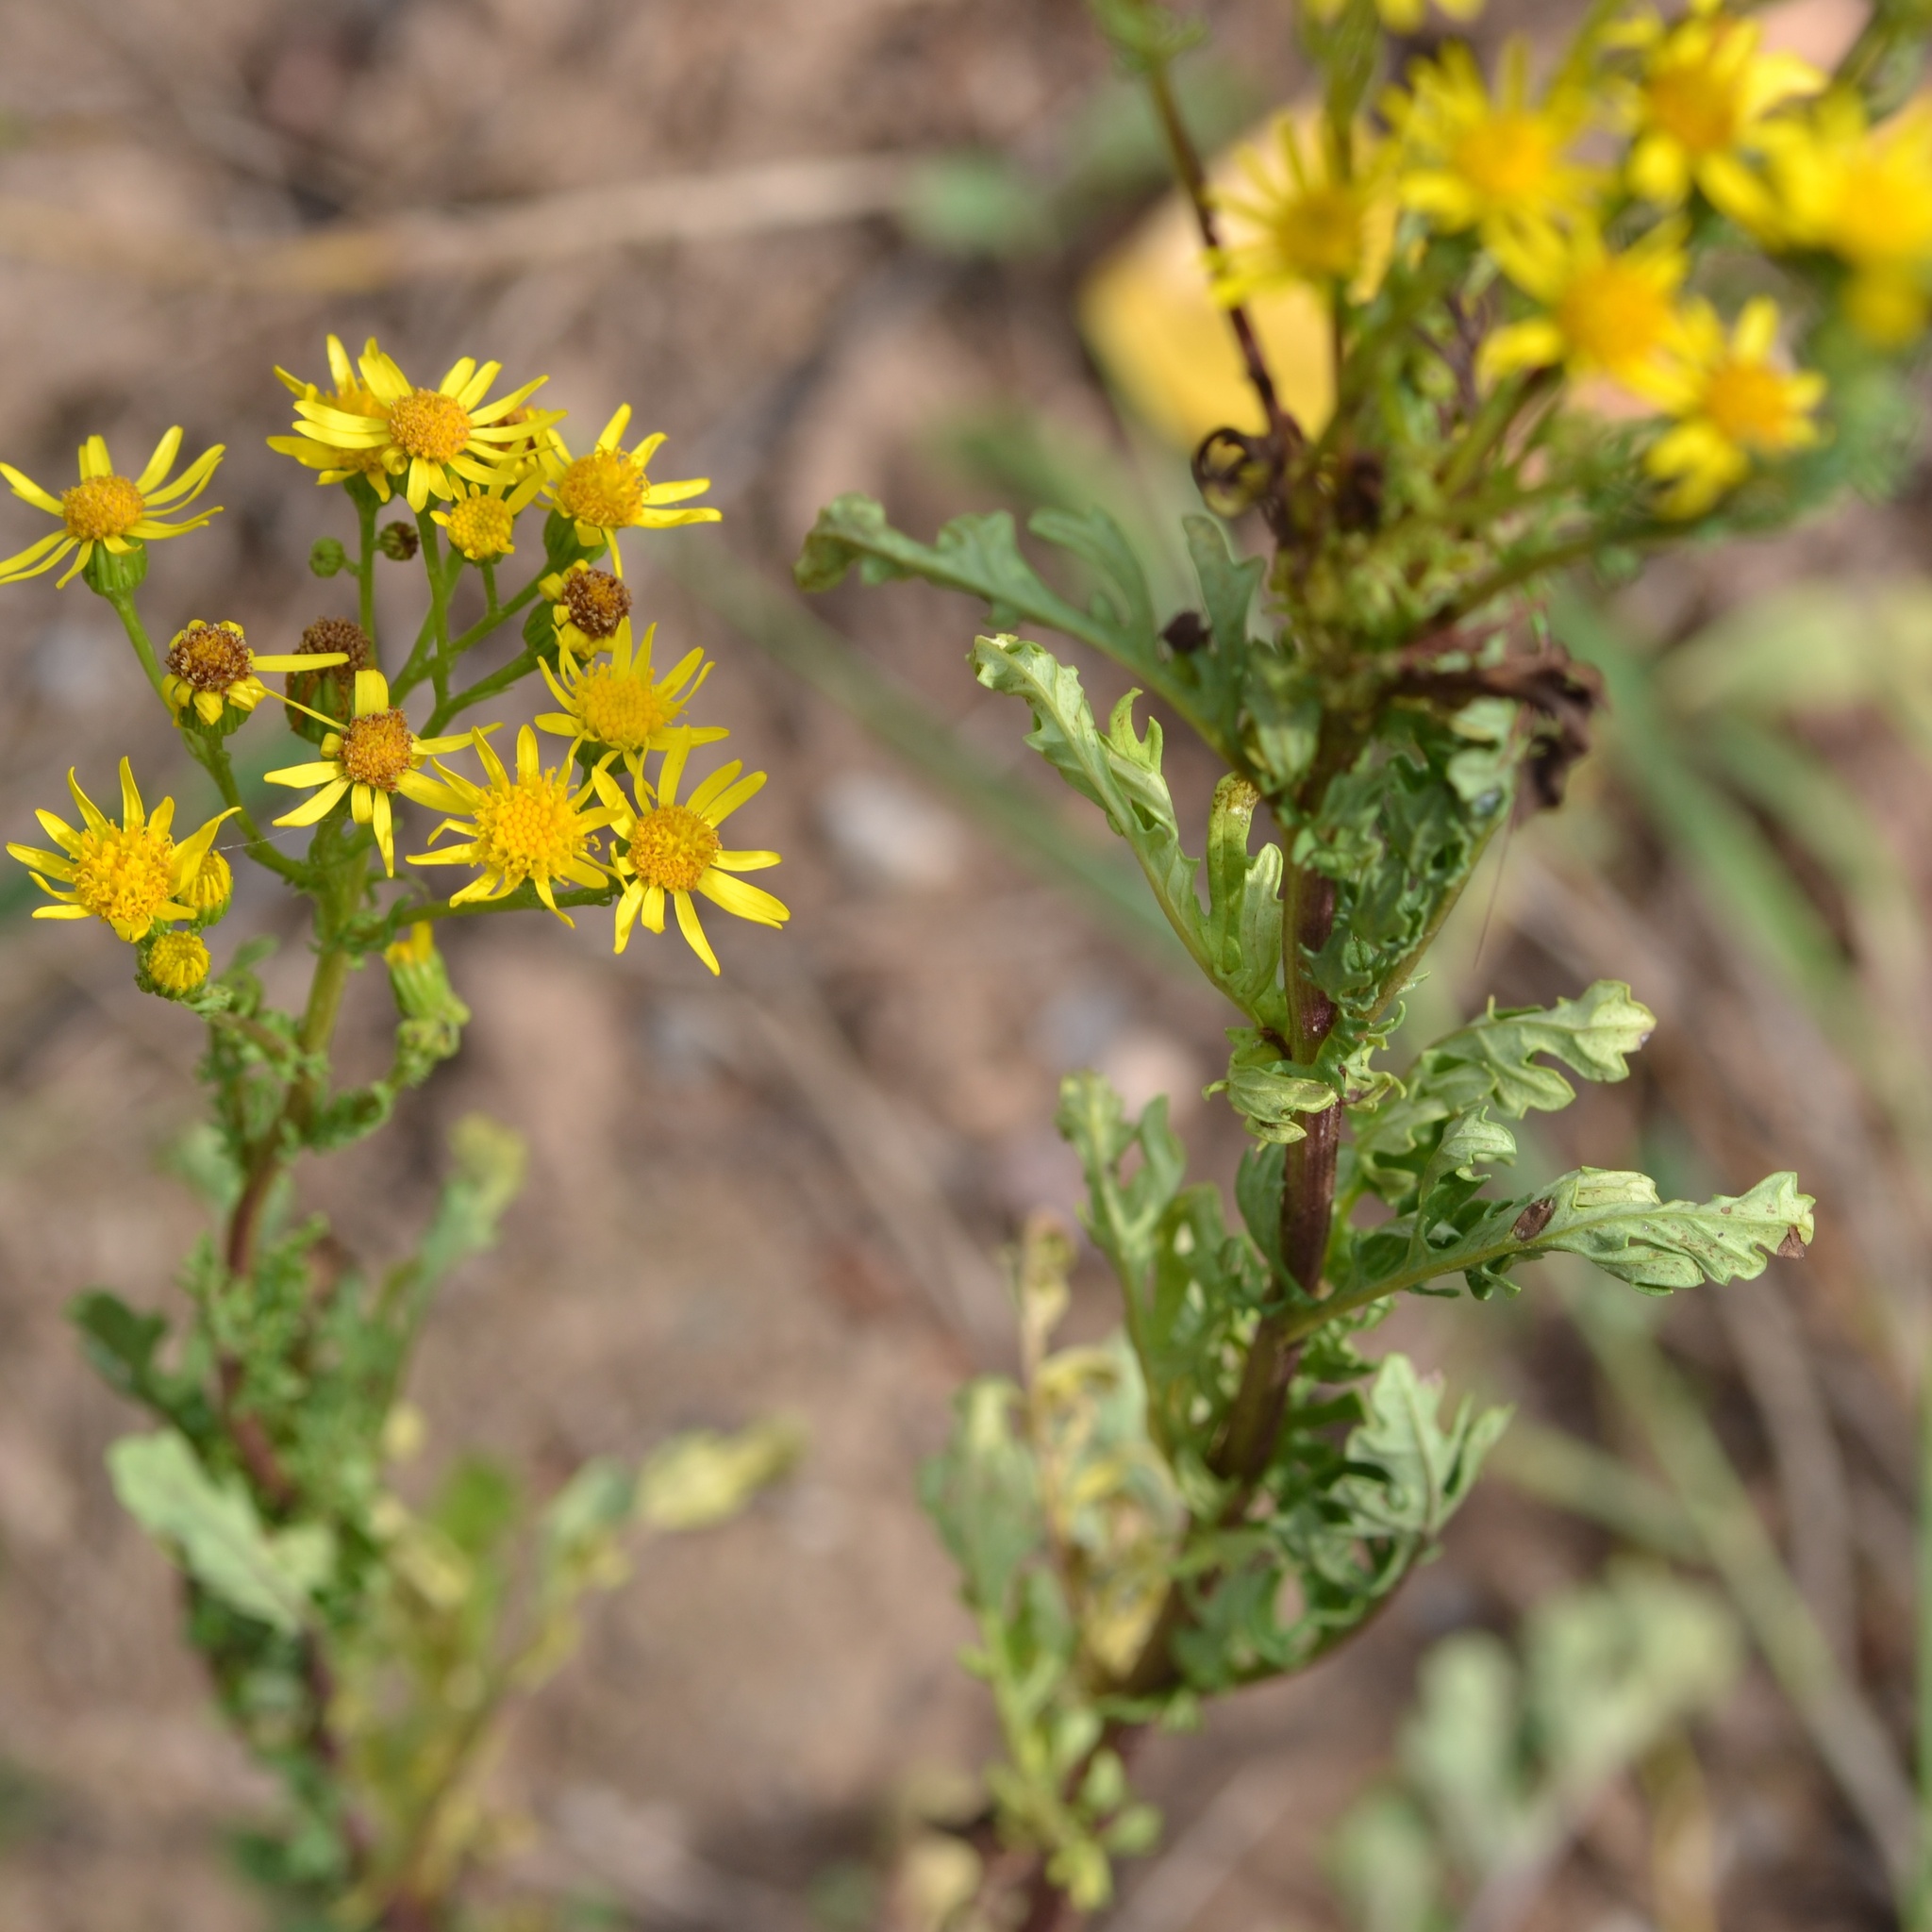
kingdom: Plantae
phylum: Tracheophyta
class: Magnoliopsida
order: Asterales
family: Asteraceae
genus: Jacobaea
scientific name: Jacobaea vulgaris
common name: Stinking willie
